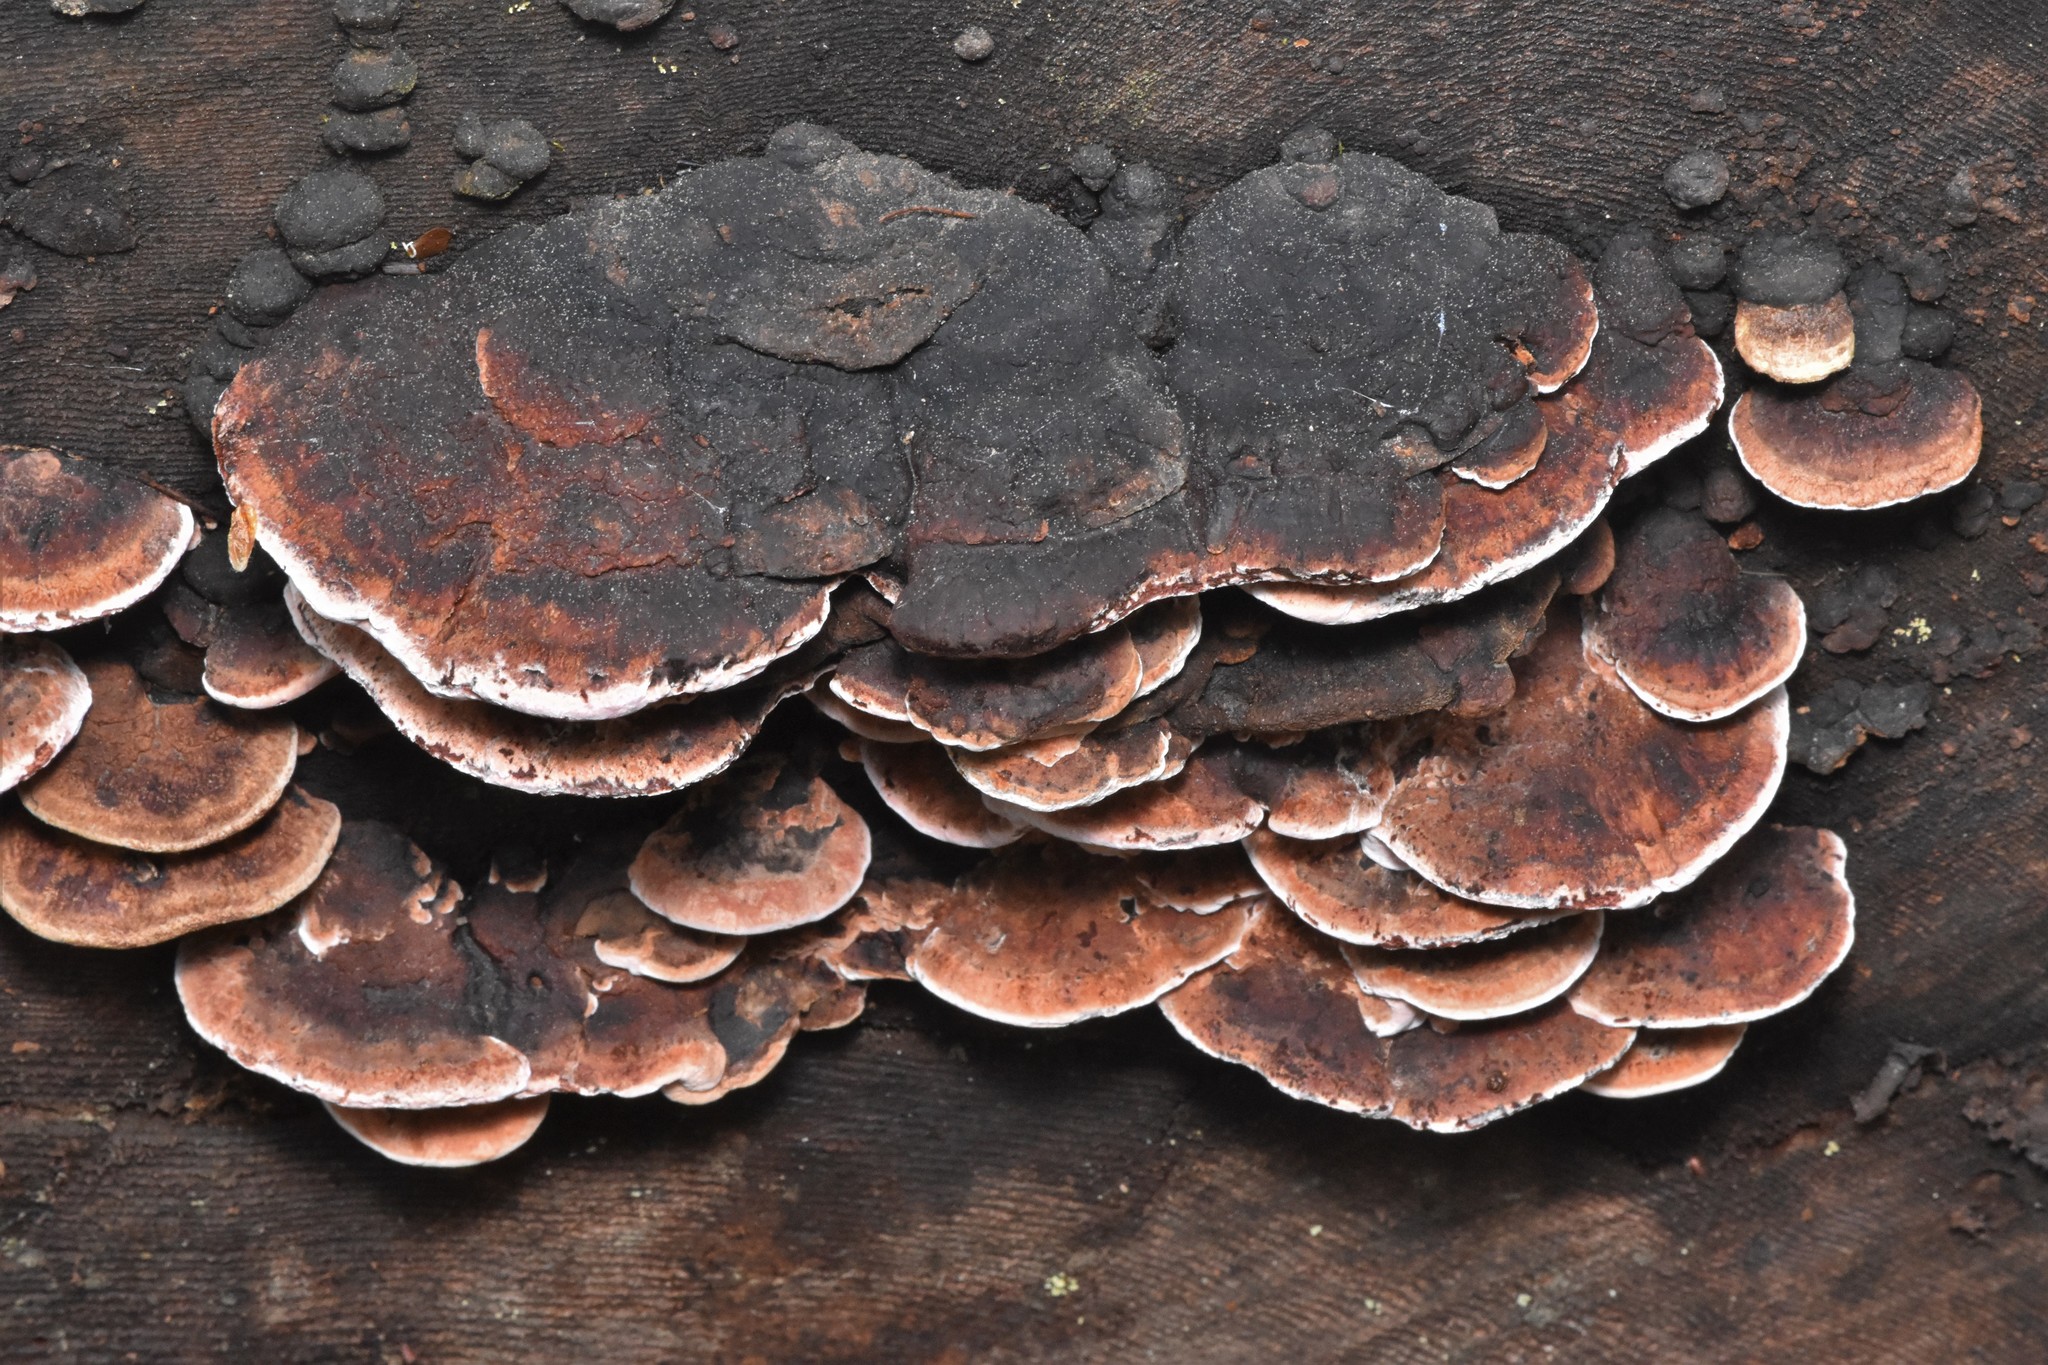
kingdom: Fungi
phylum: Basidiomycota
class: Agaricomycetes
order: Polyporales
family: Fomitopsidaceae
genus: Rhodofomes
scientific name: Rhodofomes cajanderi
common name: Rosy conk
